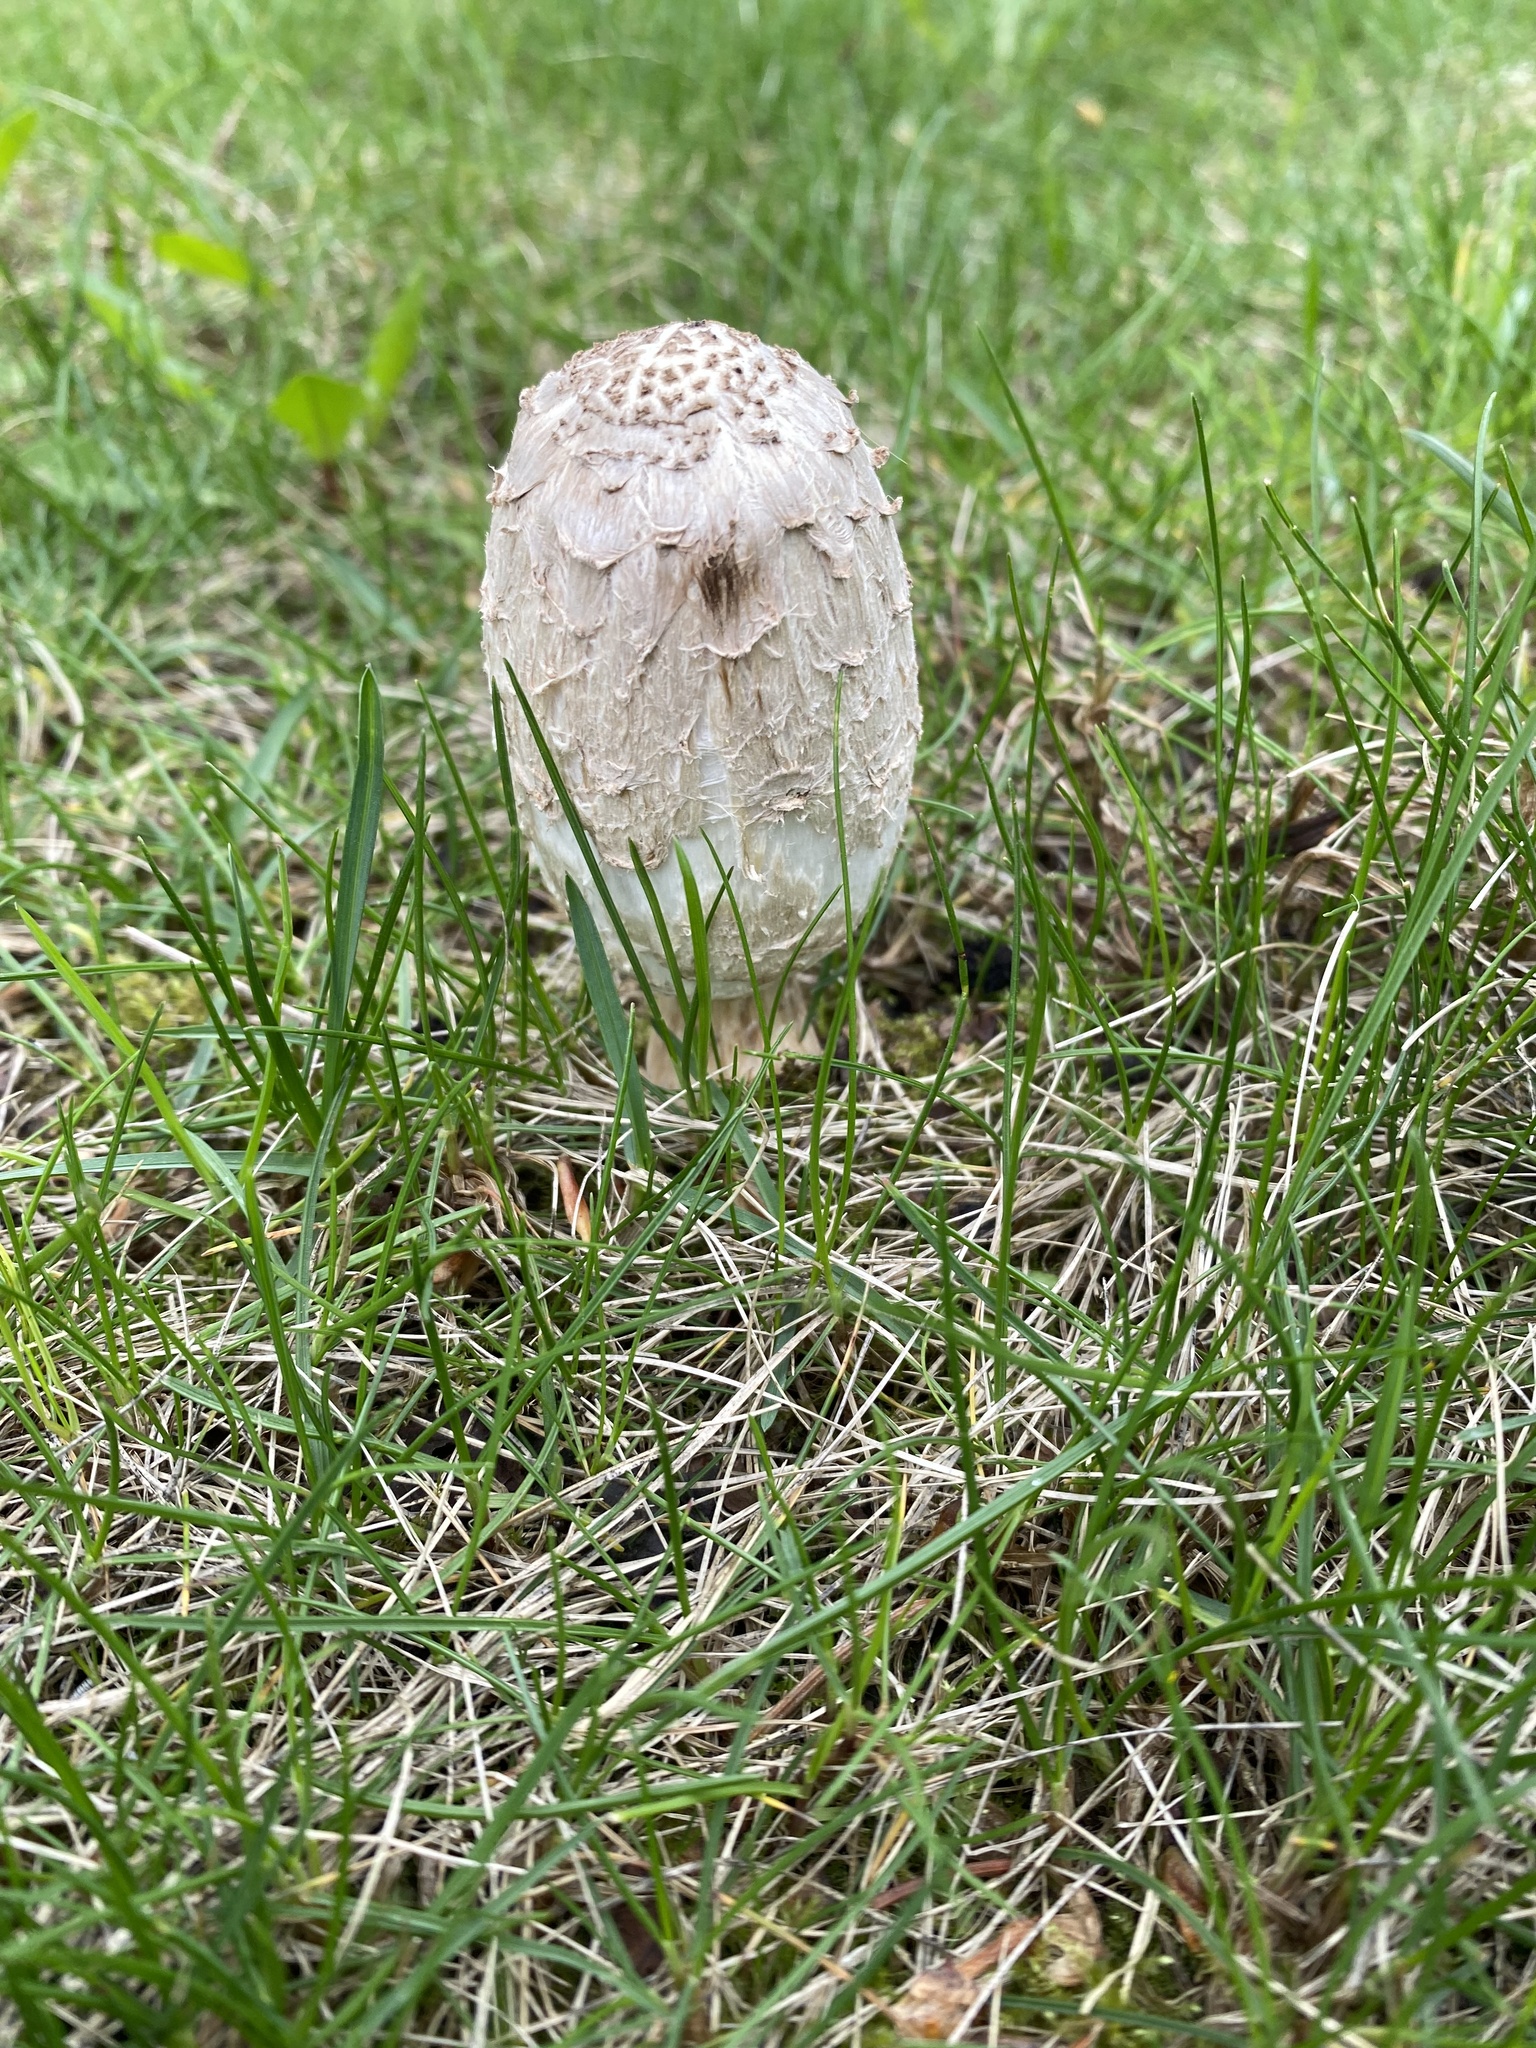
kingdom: Fungi
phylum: Basidiomycota
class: Agaricomycetes
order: Agaricales
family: Agaricaceae
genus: Coprinus
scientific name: Coprinus comatus
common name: Lawyer's wig
